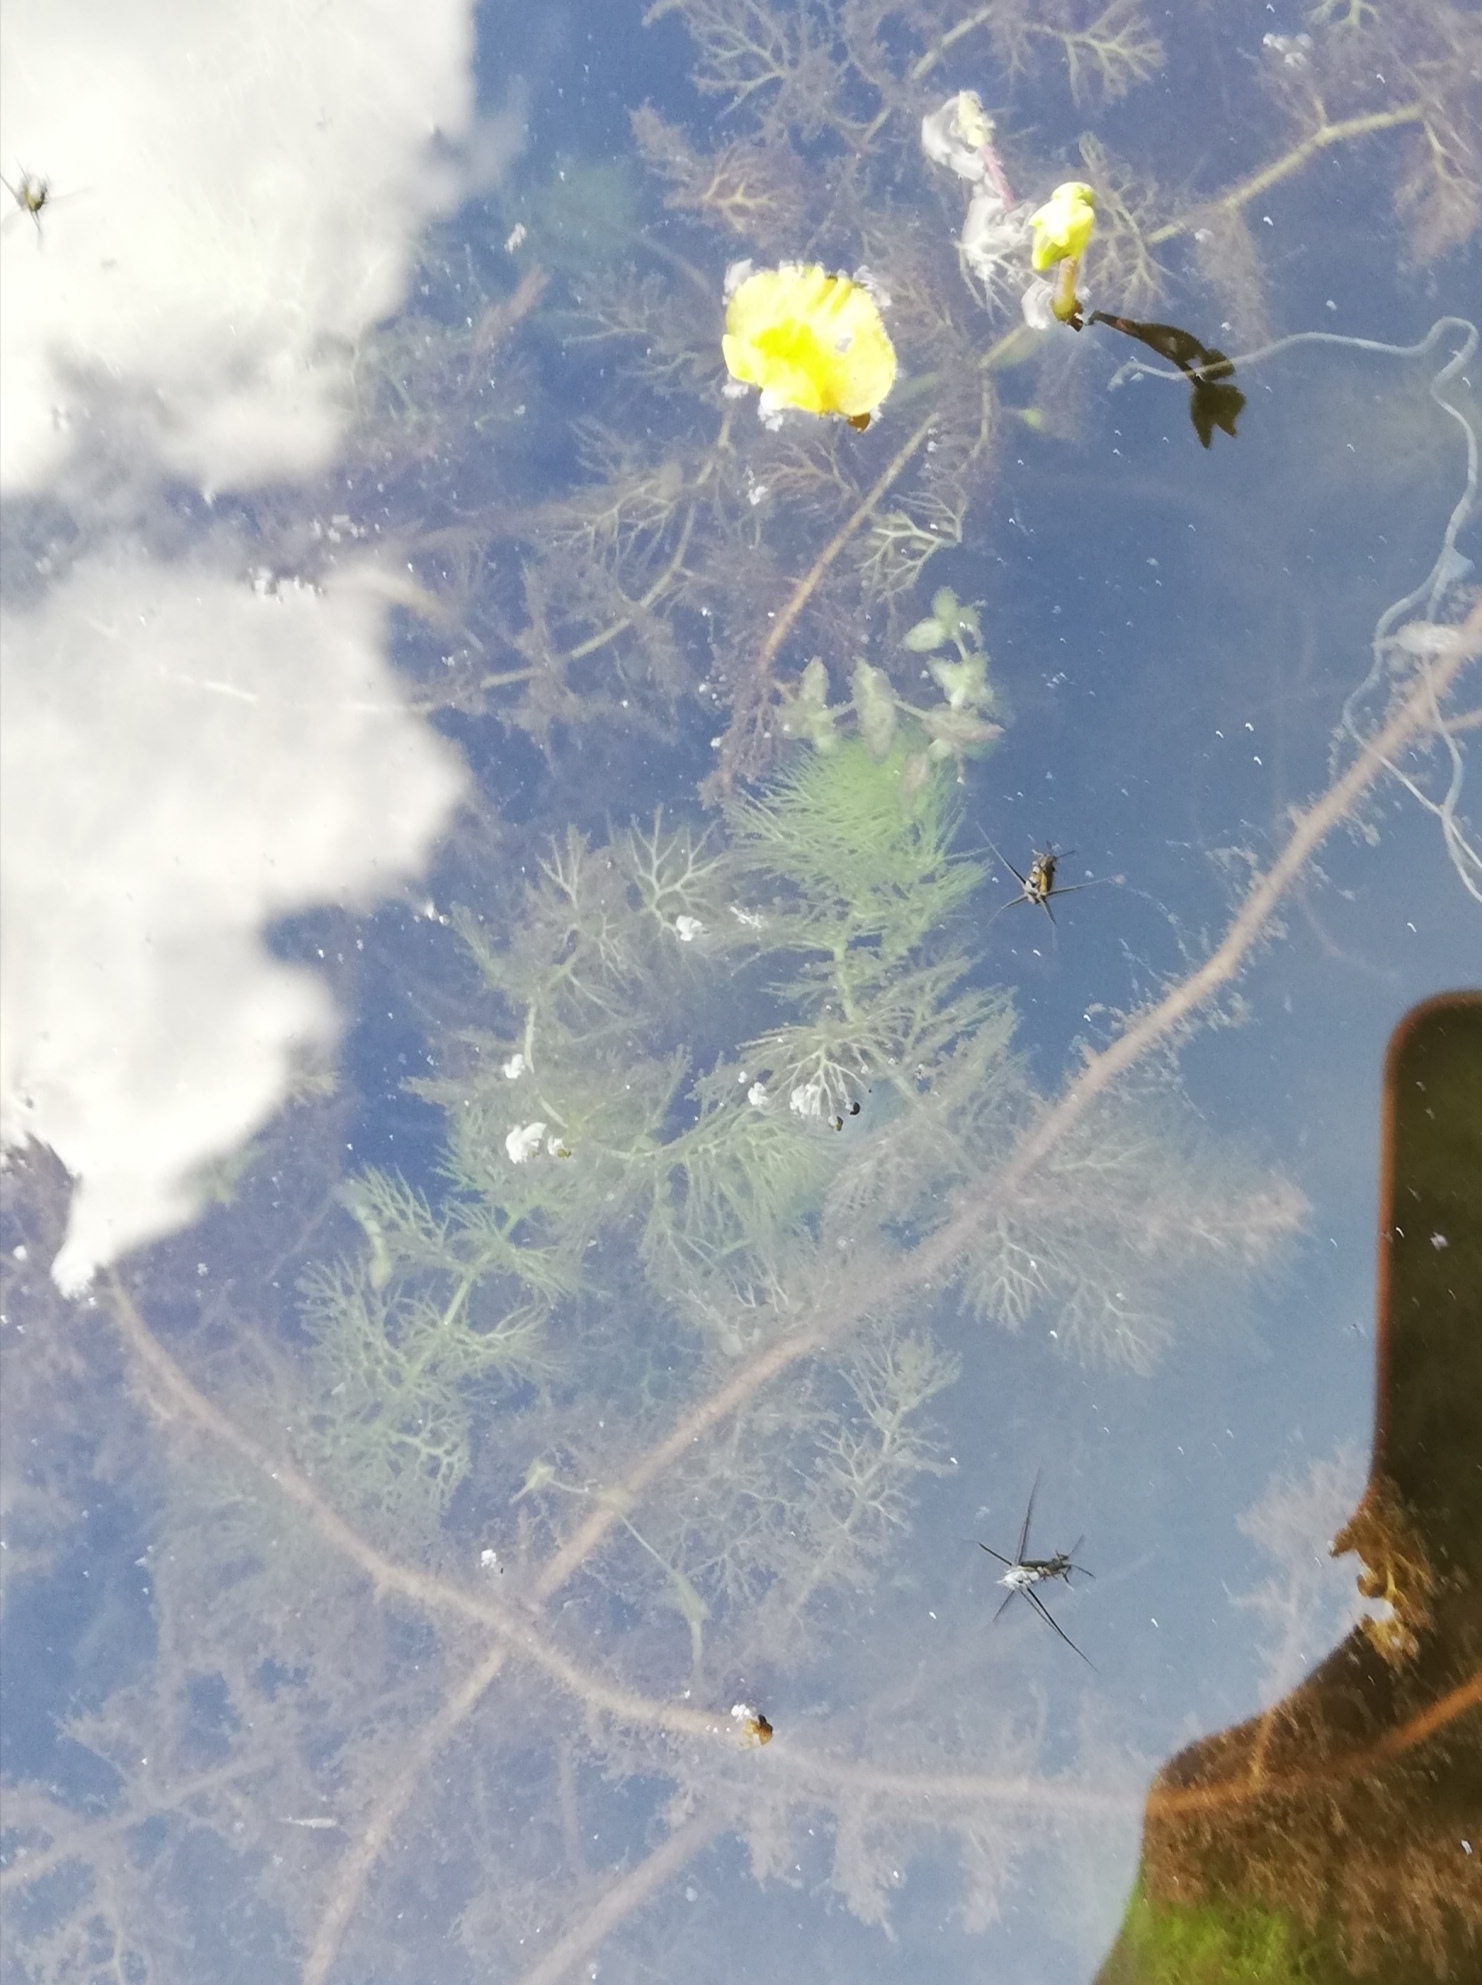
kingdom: Plantae
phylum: Tracheophyta
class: Magnoliopsida
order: Lamiales
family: Lentibulariaceae
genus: Utricularia
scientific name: Utricularia australis
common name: Bladderwort
